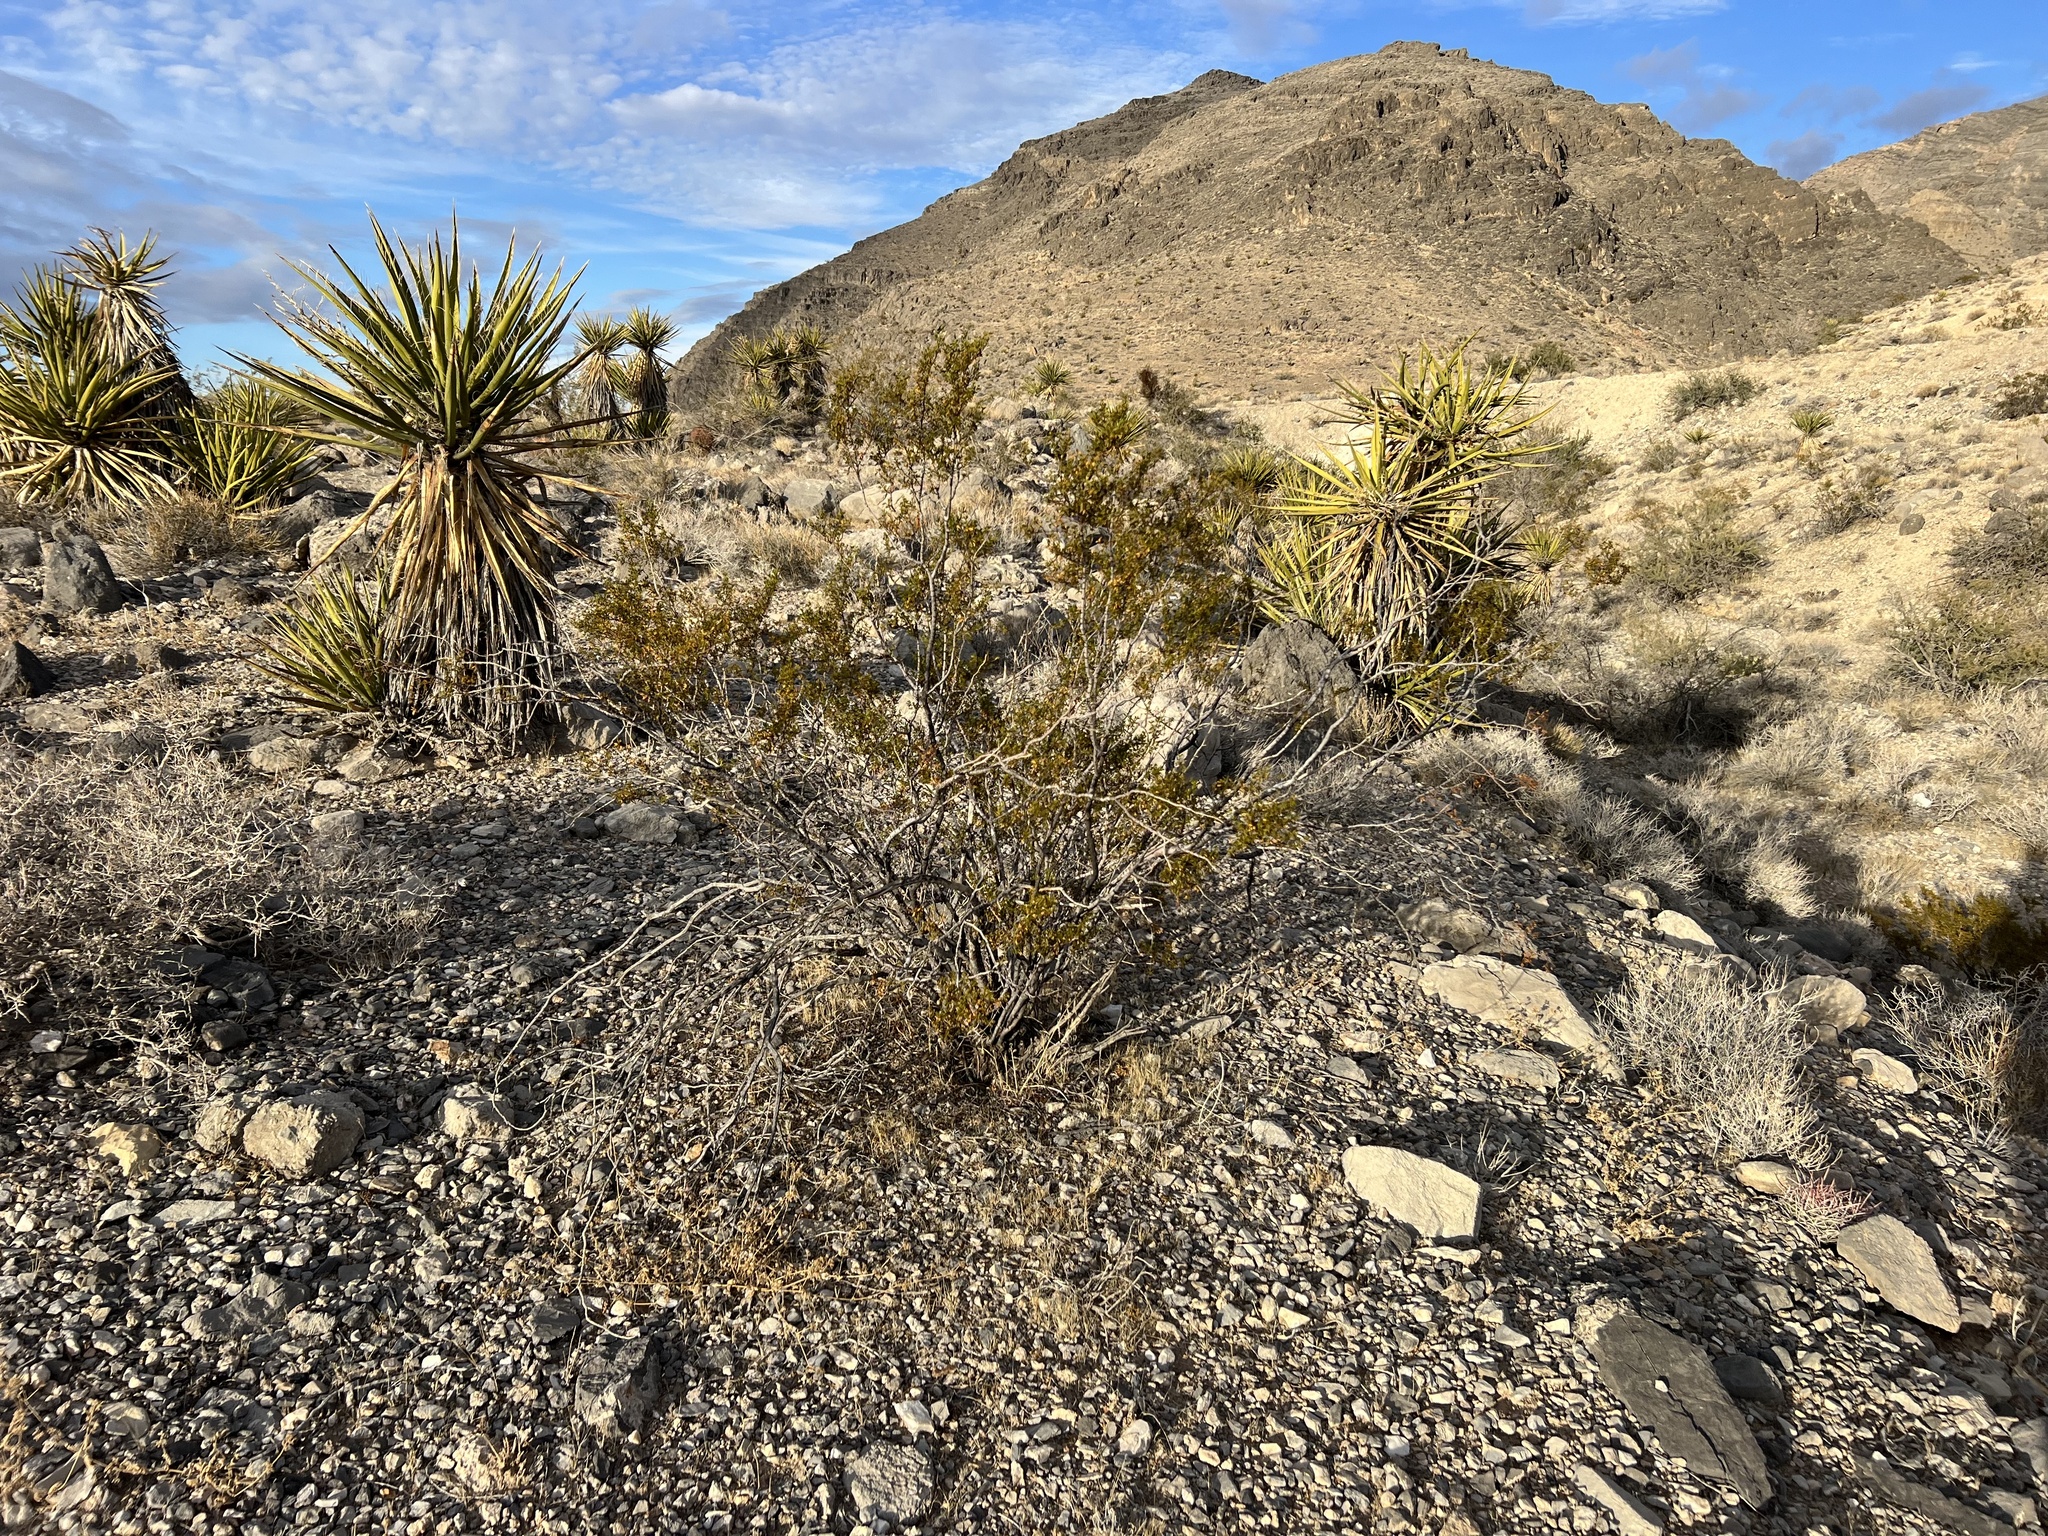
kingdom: Plantae
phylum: Tracheophyta
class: Magnoliopsida
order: Zygophyllales
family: Zygophyllaceae
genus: Larrea
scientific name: Larrea tridentata
